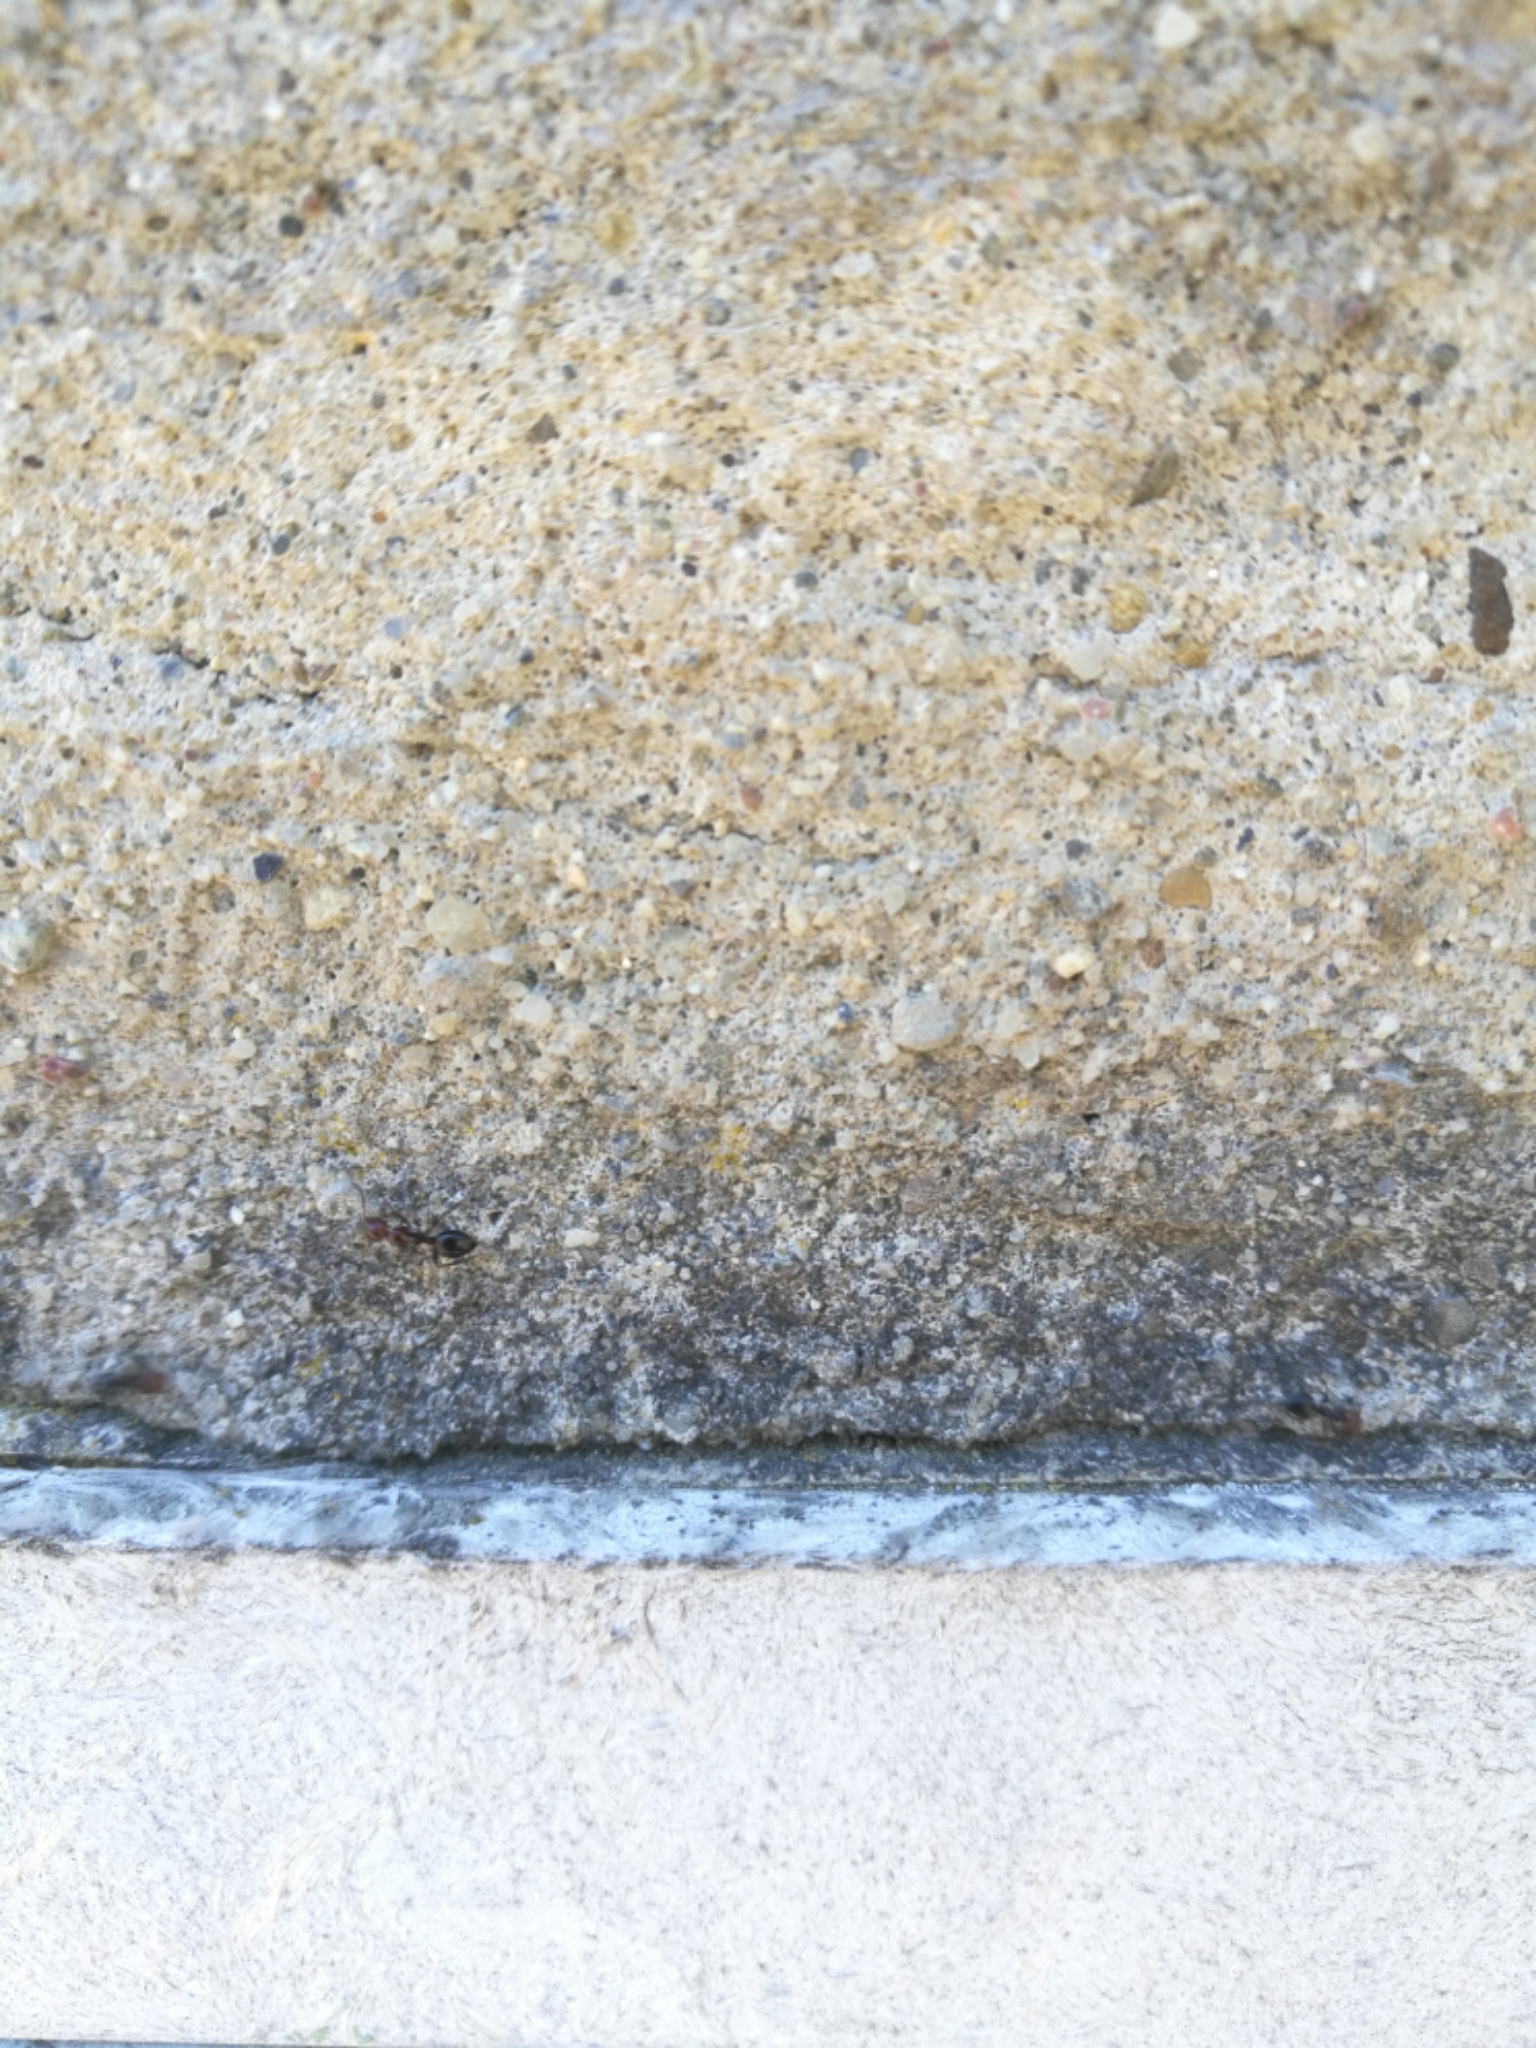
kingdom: Animalia
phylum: Arthropoda
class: Insecta
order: Hymenoptera
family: Formicidae
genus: Camponotus
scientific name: Camponotus lateralis
